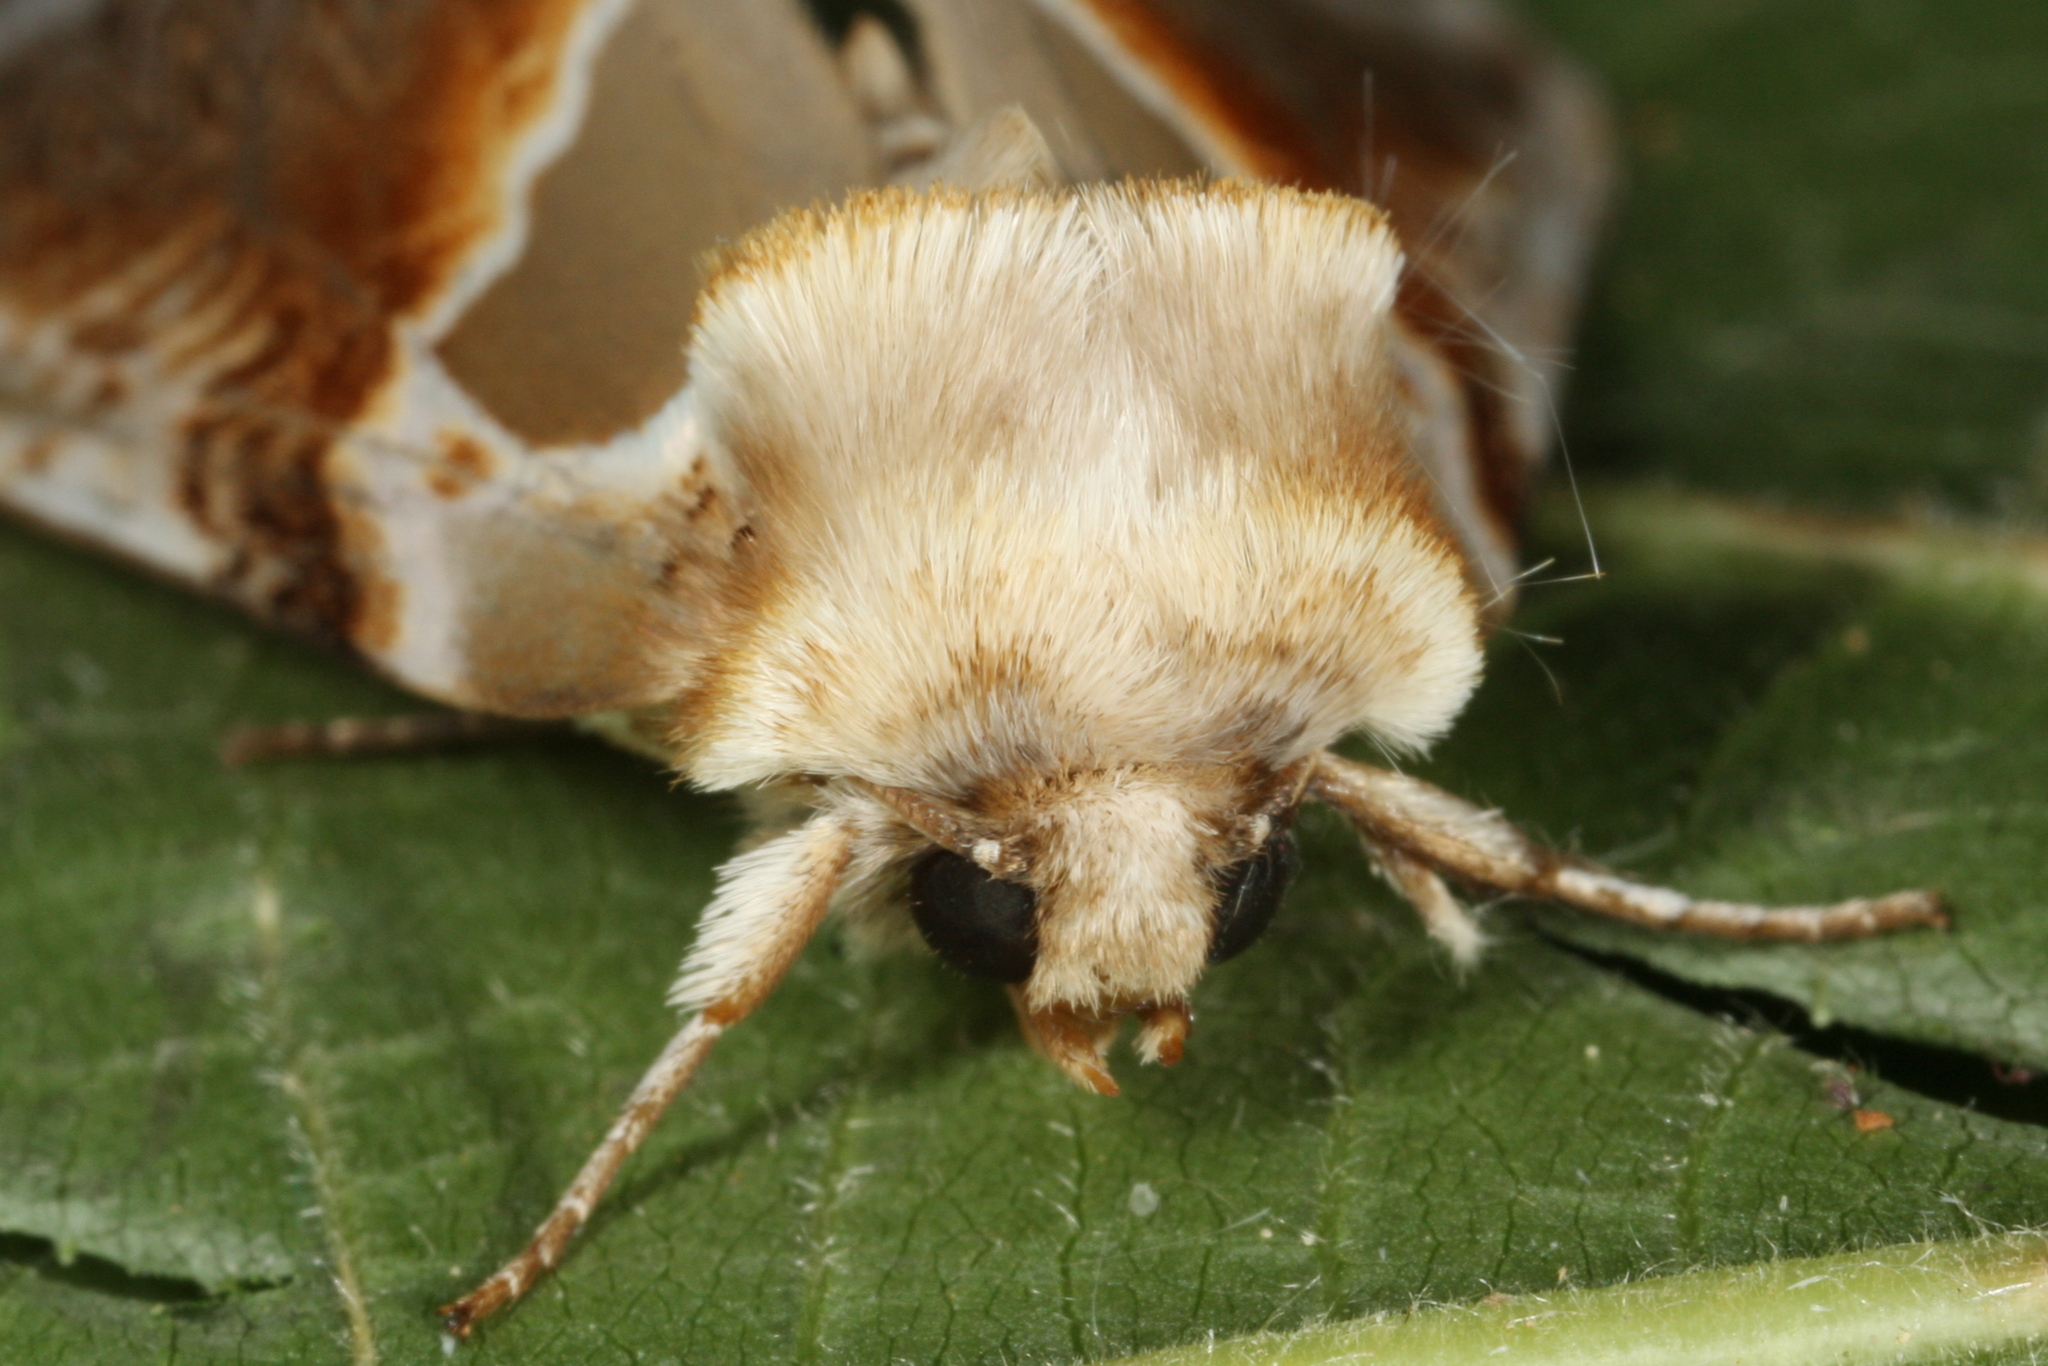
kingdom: Animalia
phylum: Arthropoda
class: Insecta
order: Lepidoptera
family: Drepanidae
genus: Habrosyne
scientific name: Habrosyne pyritoides
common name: Buff arches
